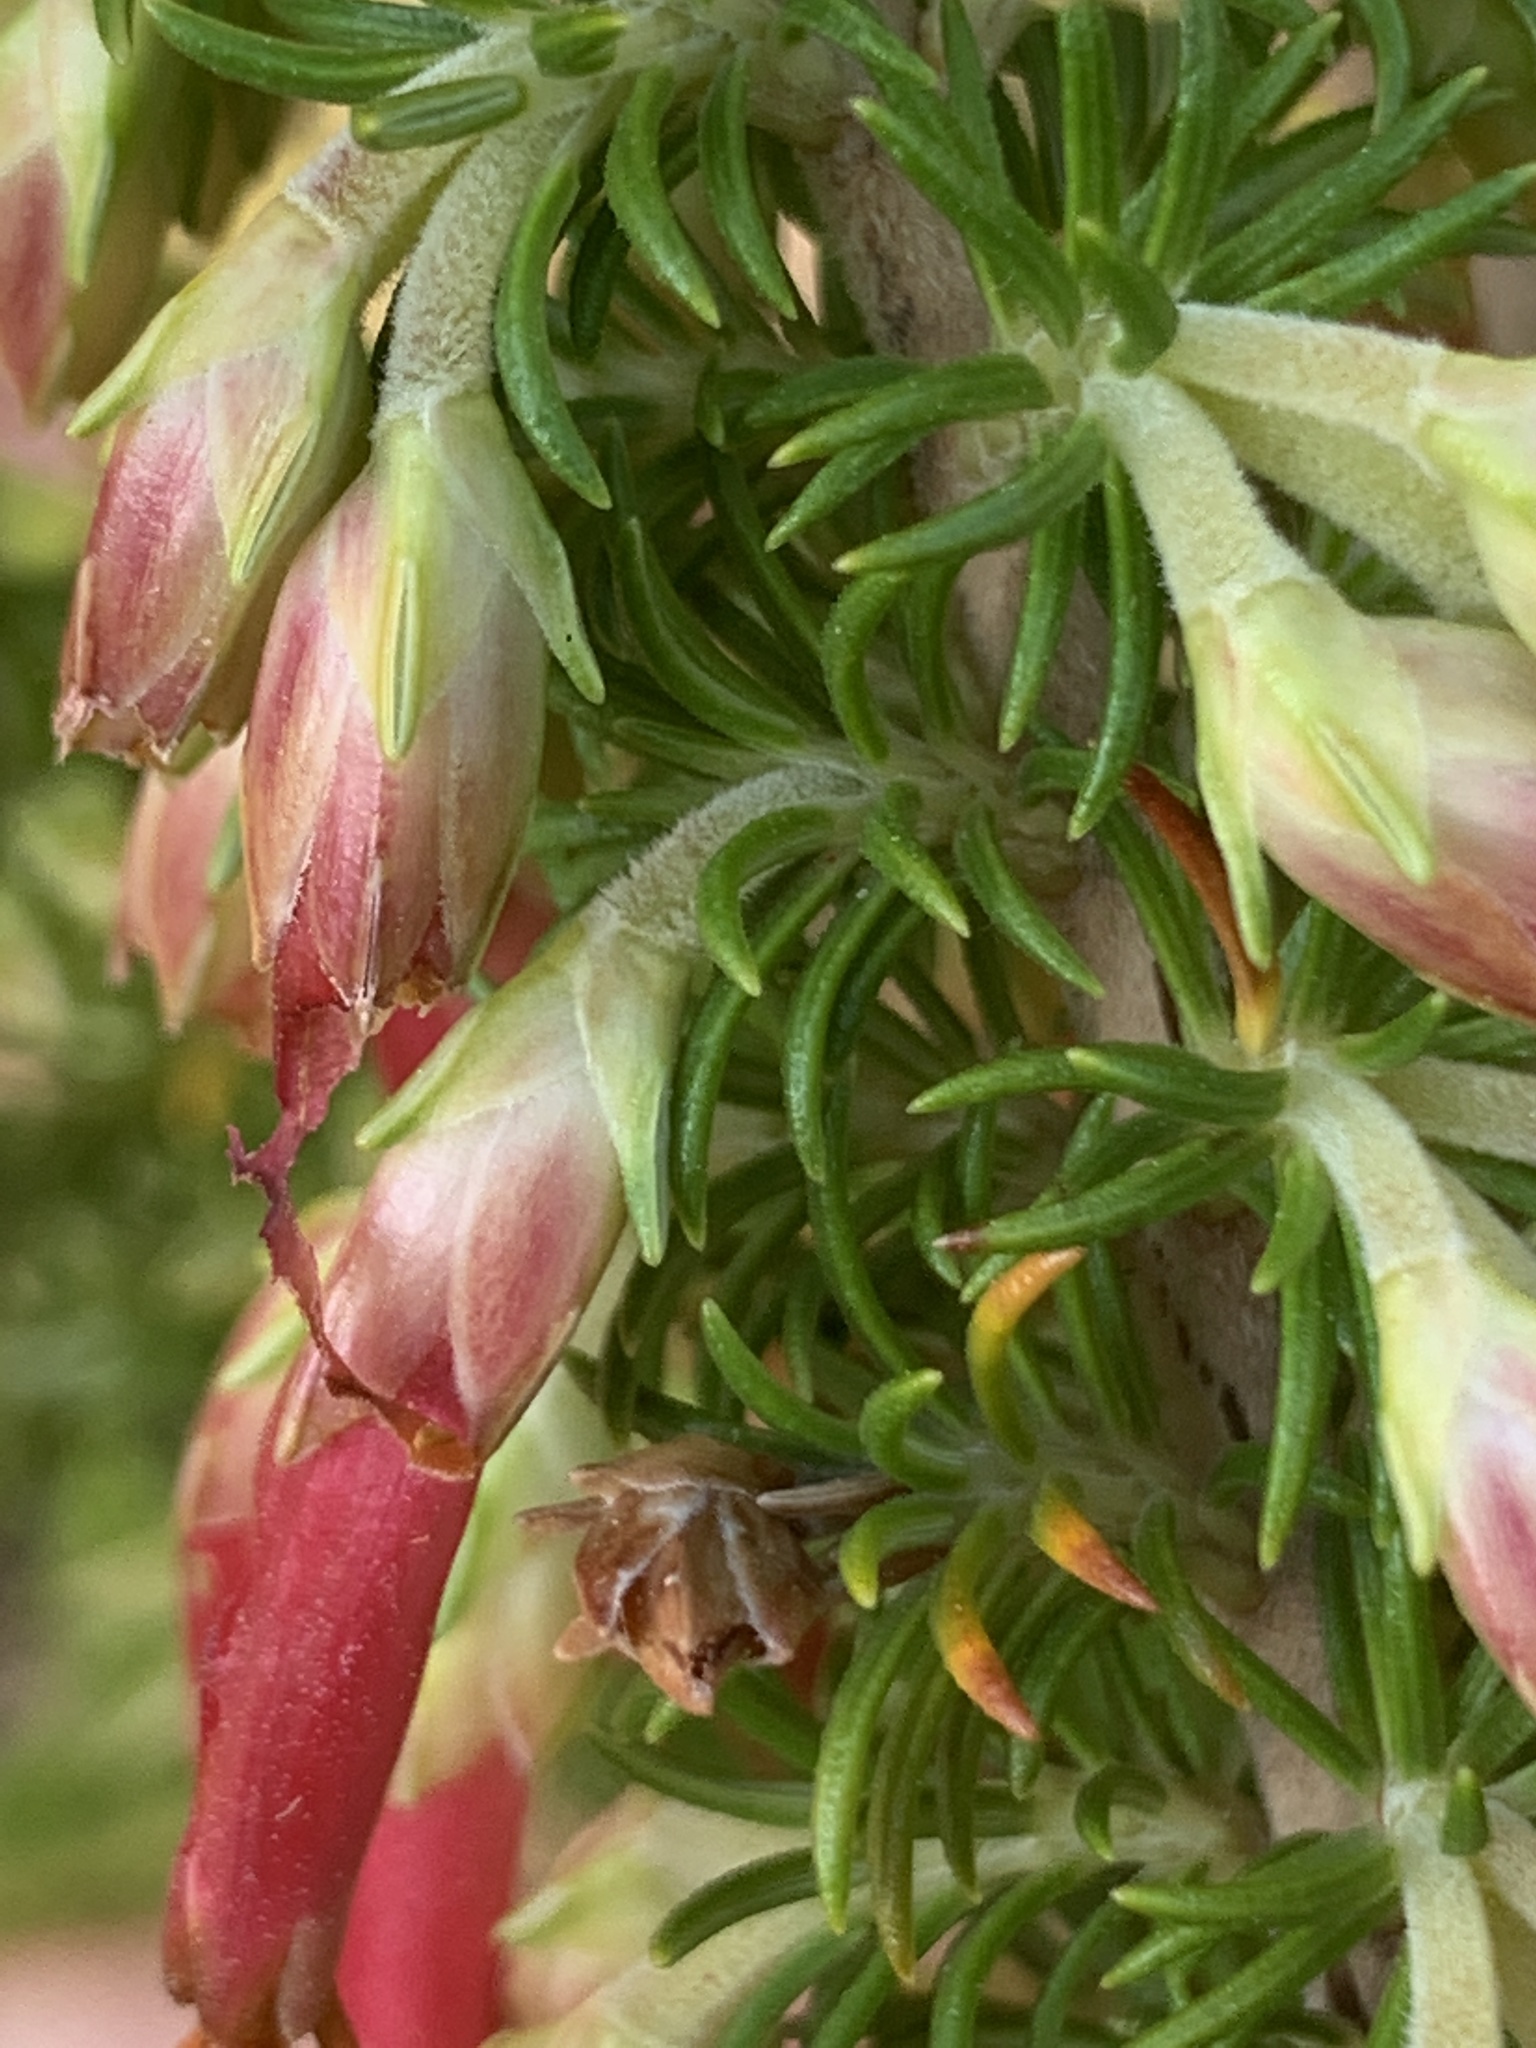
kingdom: Plantae
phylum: Tracheophyta
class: Magnoliopsida
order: Ericales
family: Ericaceae
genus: Erica
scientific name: Erica coccinea
